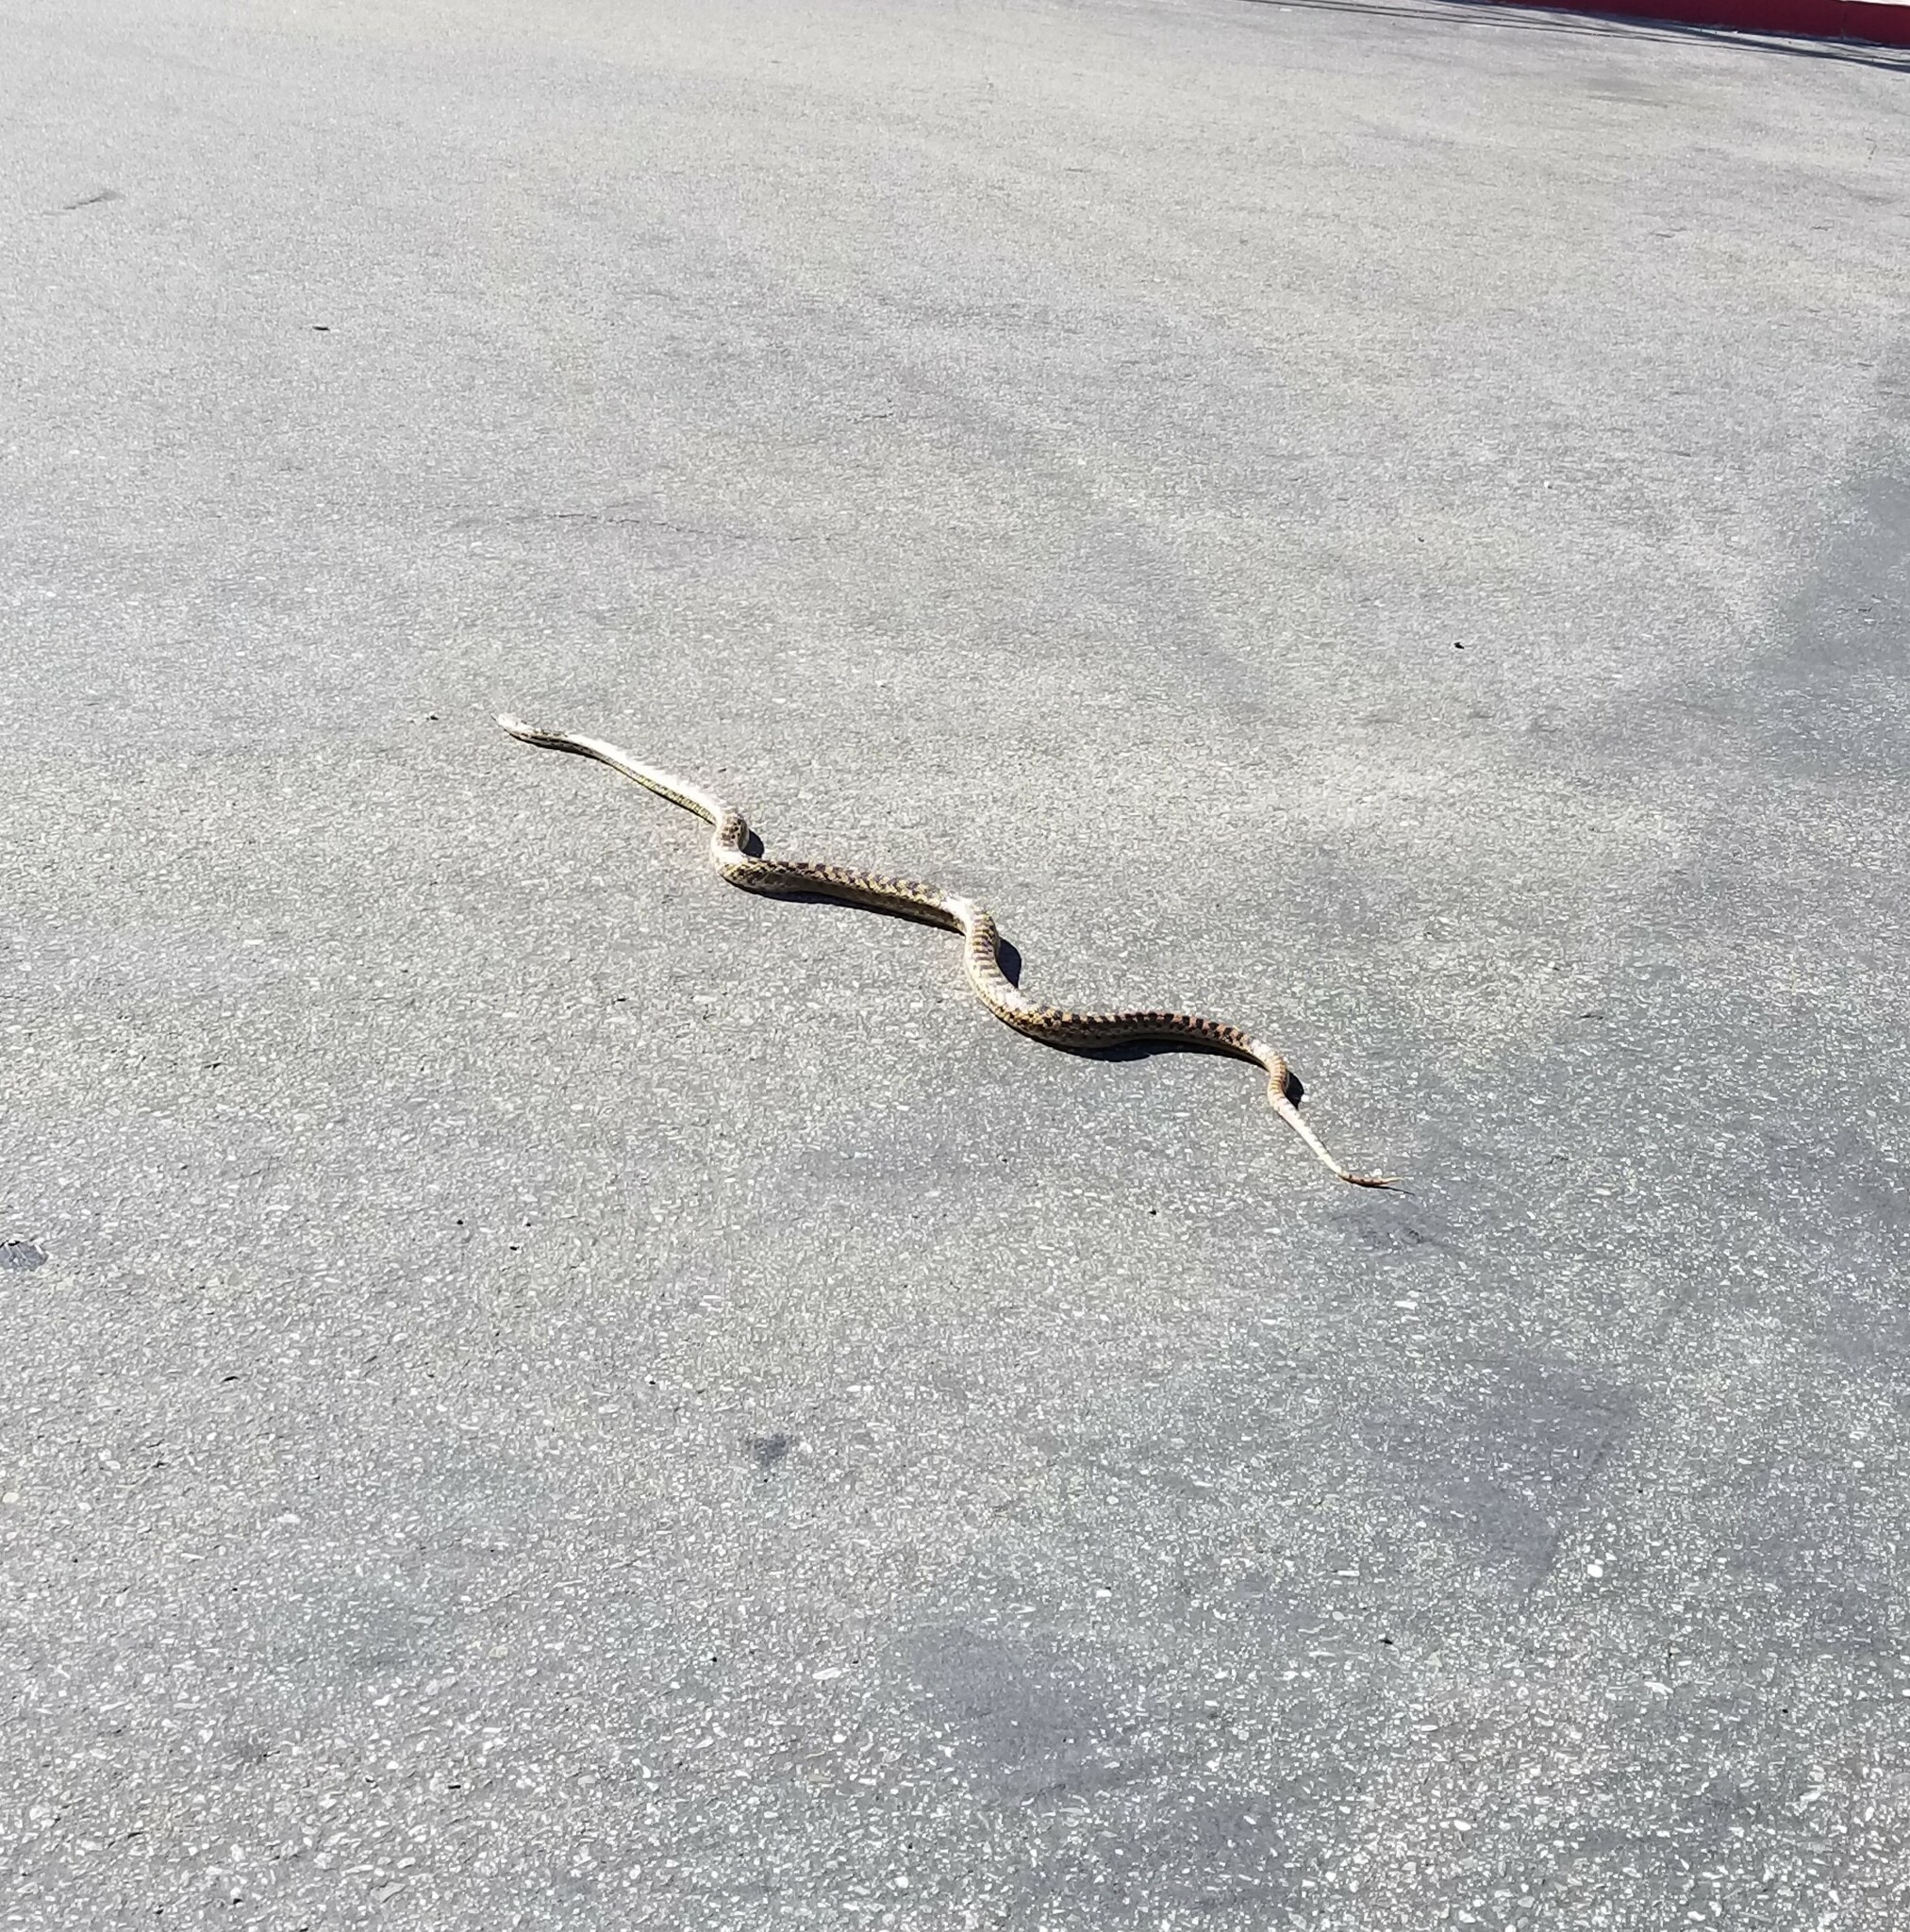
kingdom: Animalia
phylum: Chordata
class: Squamata
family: Colubridae
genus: Pituophis
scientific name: Pituophis catenifer
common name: Gopher snake
